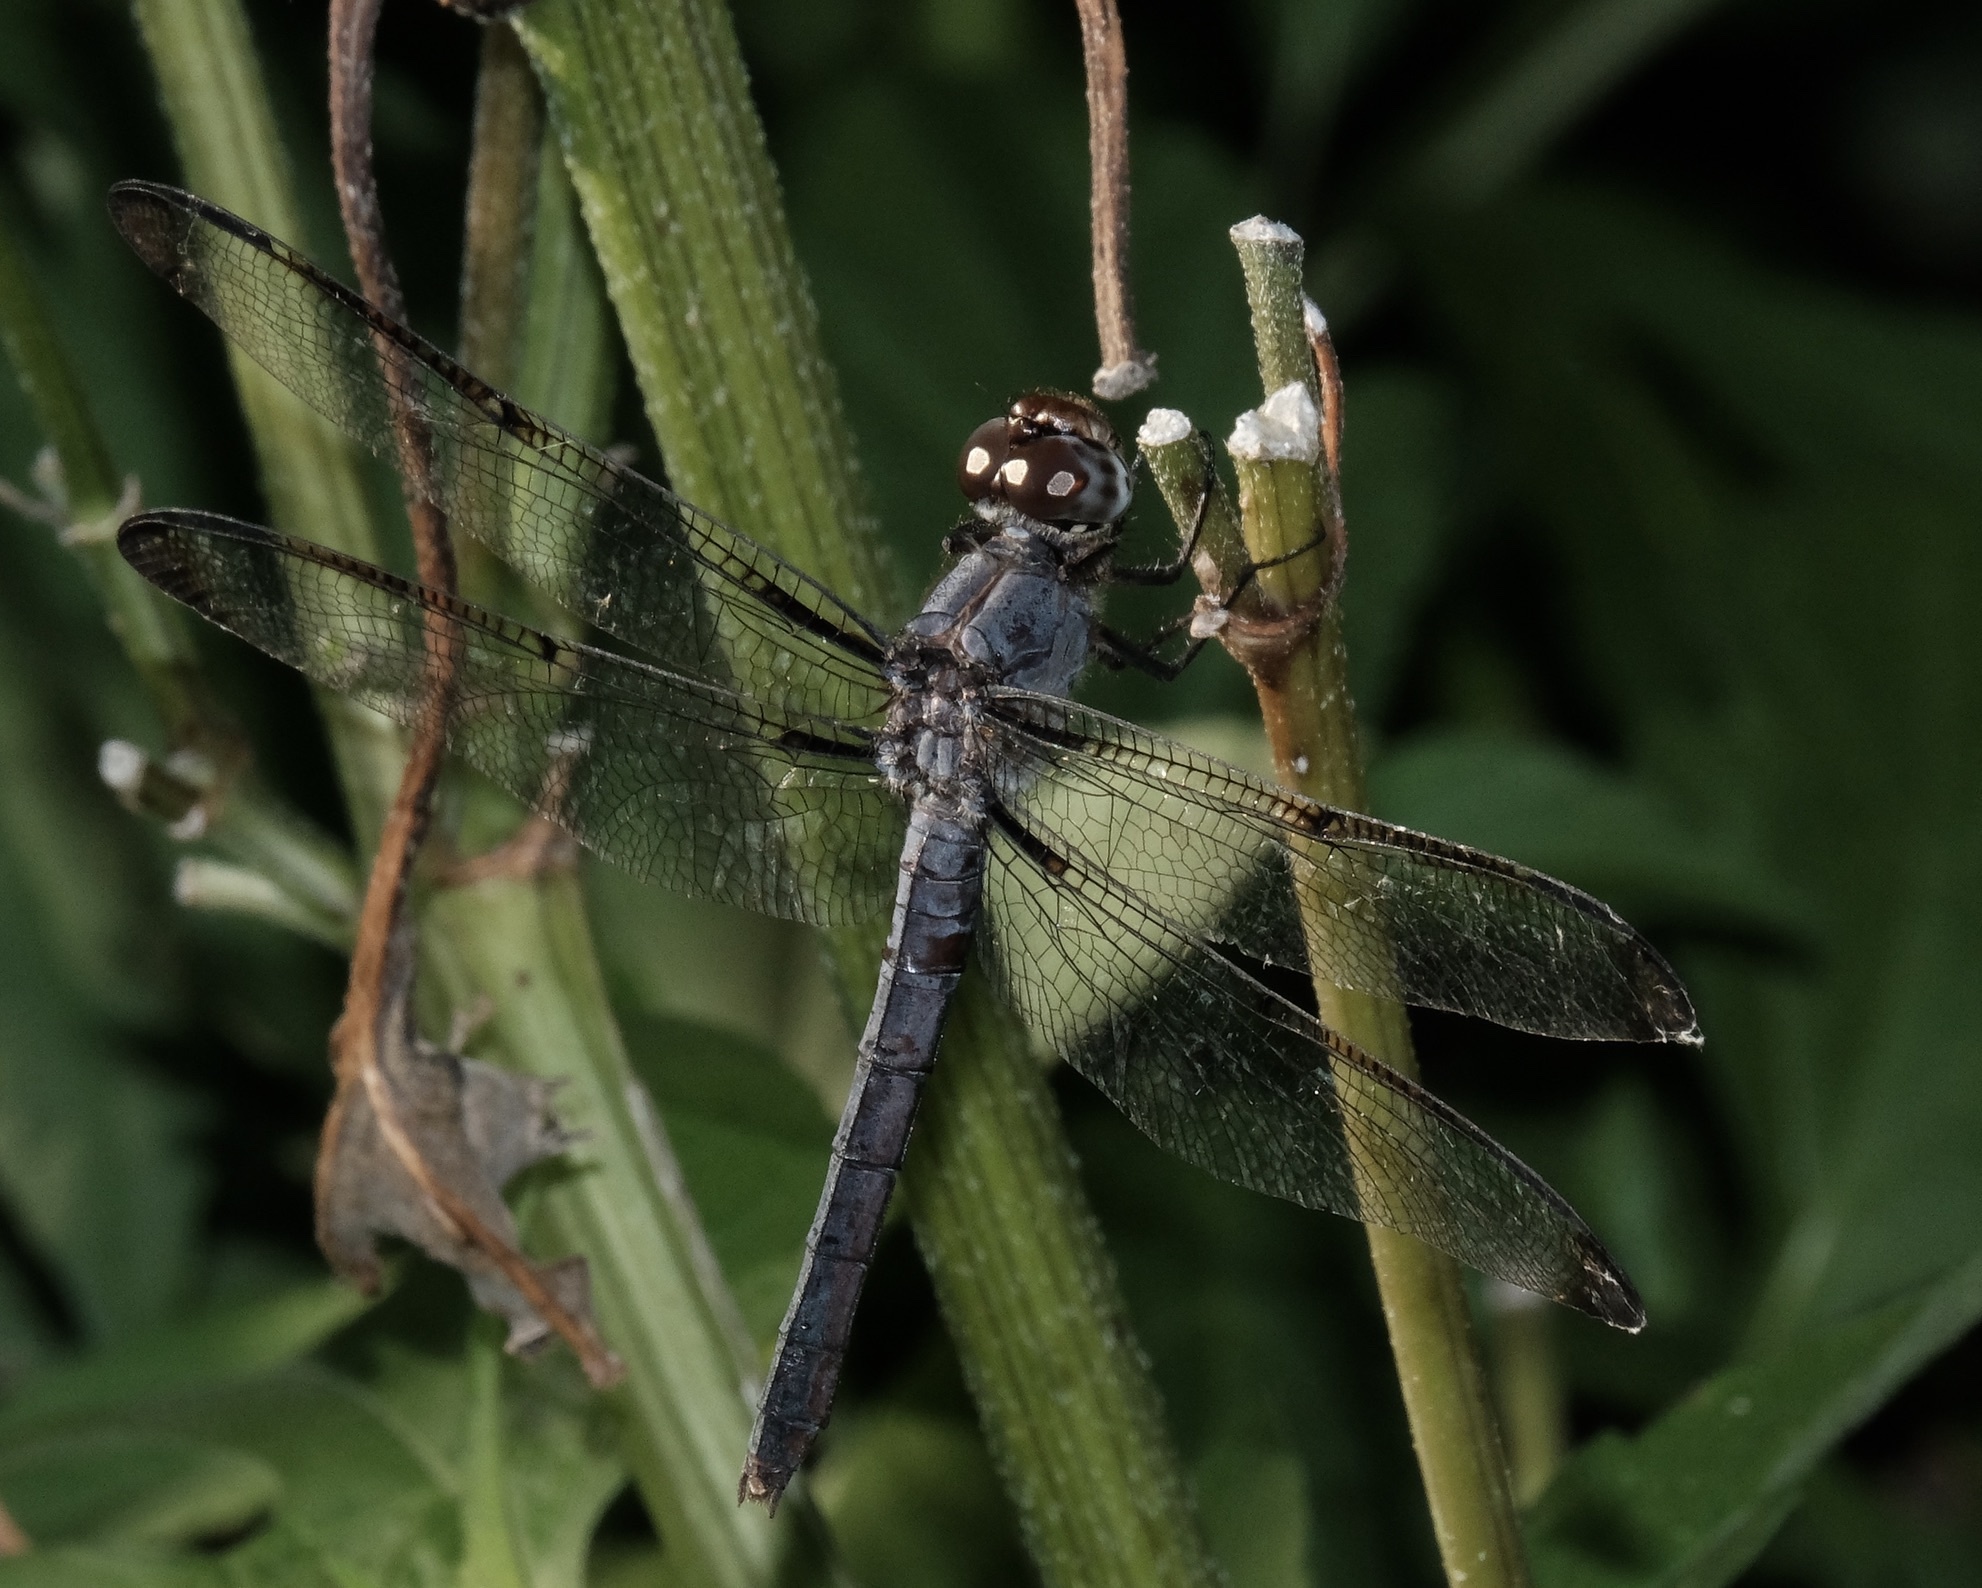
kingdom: Animalia
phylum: Arthropoda
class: Insecta
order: Odonata
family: Libellulidae
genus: Libellula
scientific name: Libellula incesta
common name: Slaty skimmer
